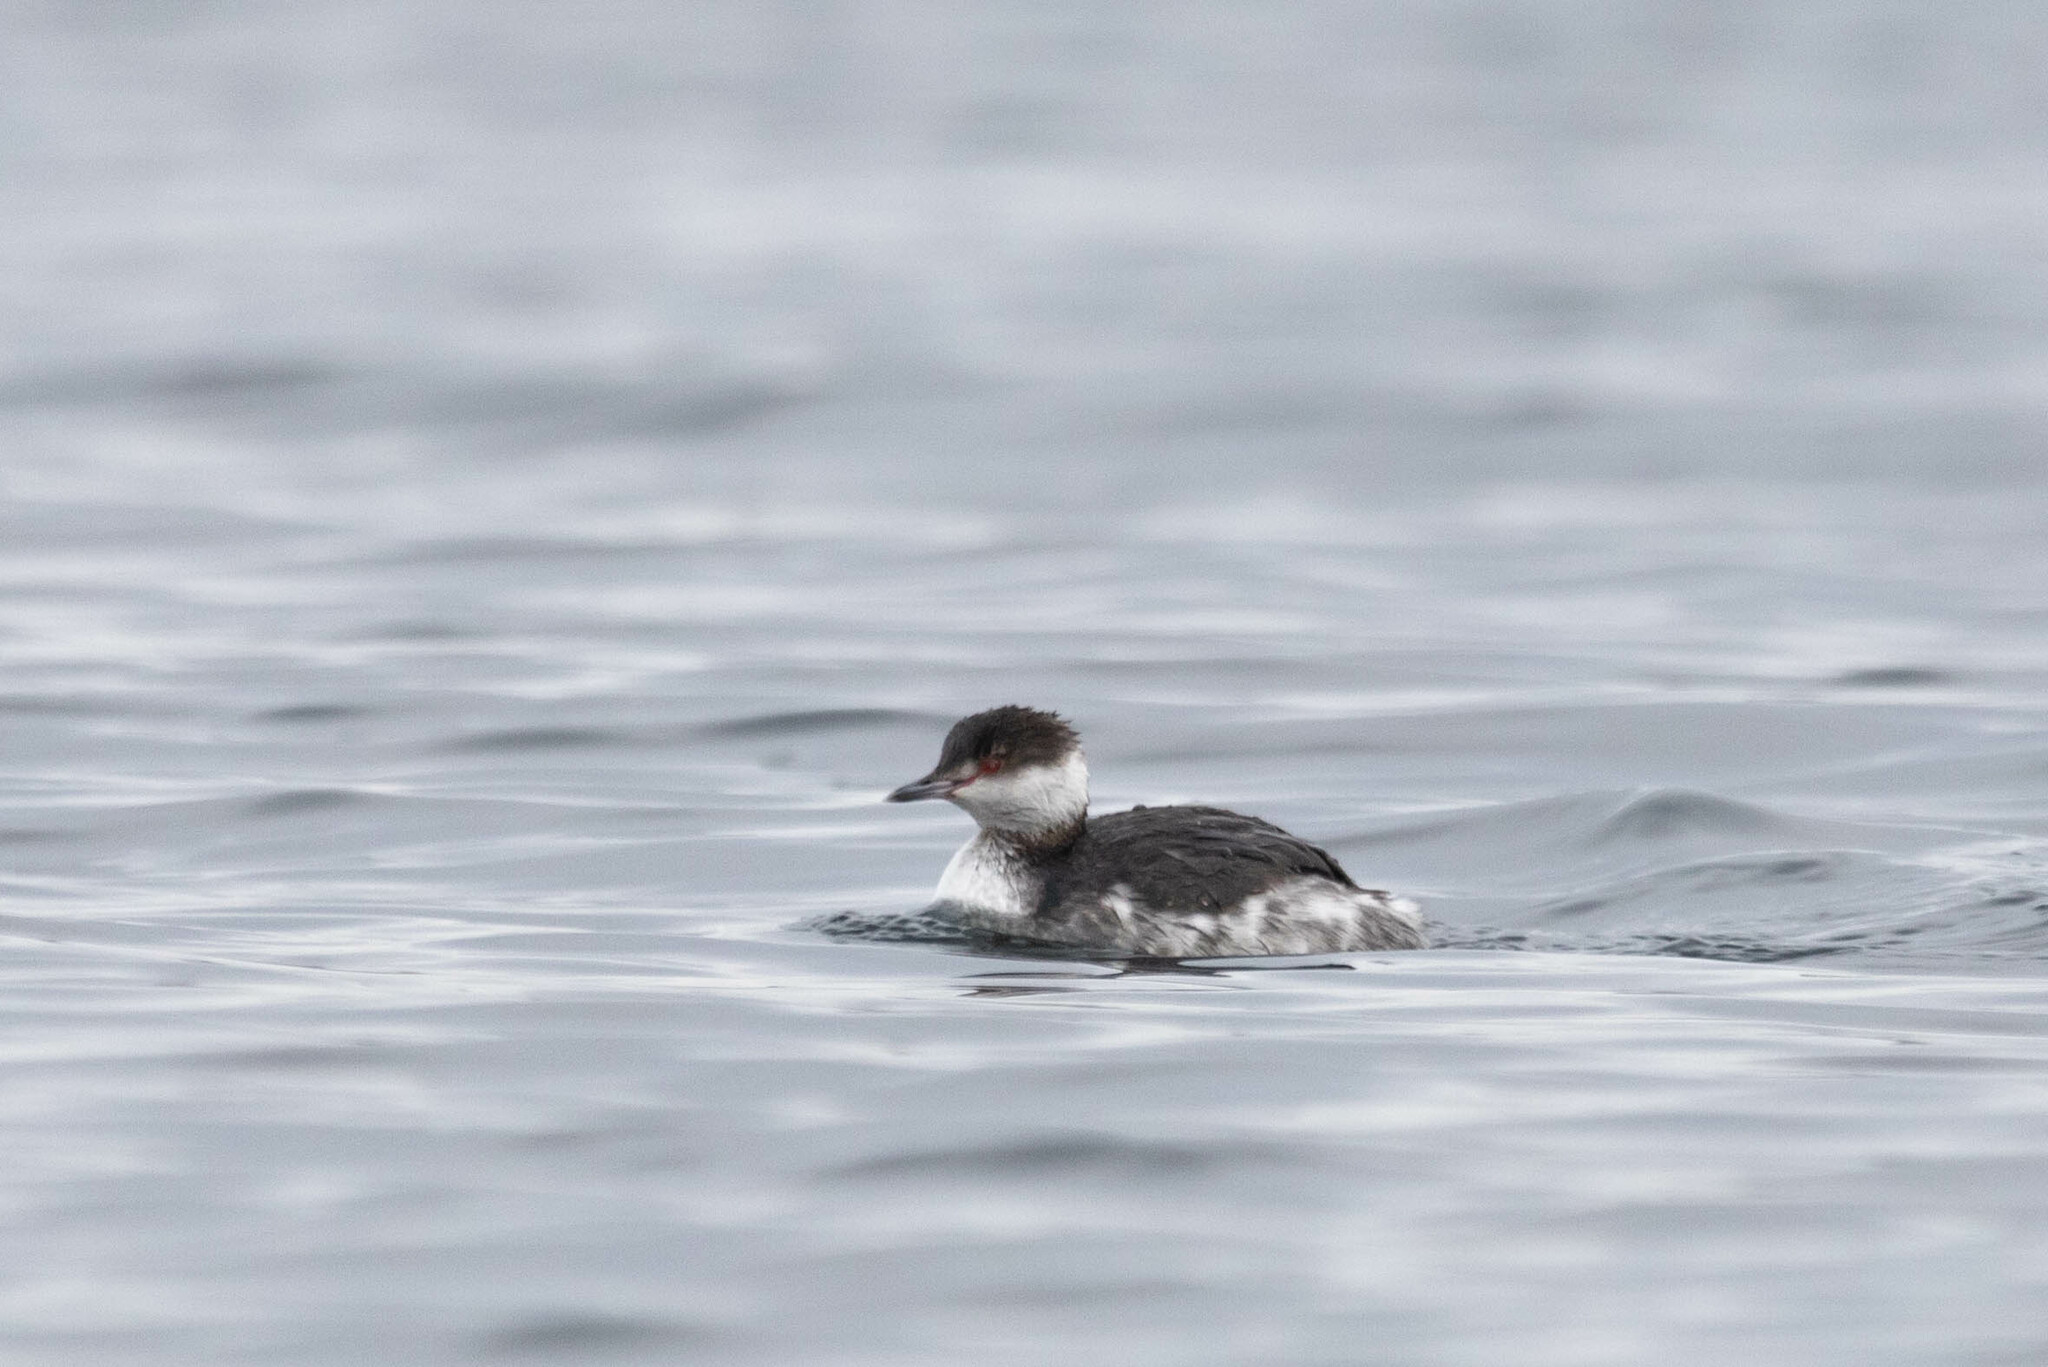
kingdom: Animalia
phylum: Chordata
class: Aves
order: Podicipediformes
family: Podicipedidae
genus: Podiceps
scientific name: Podiceps auritus
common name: Horned grebe
